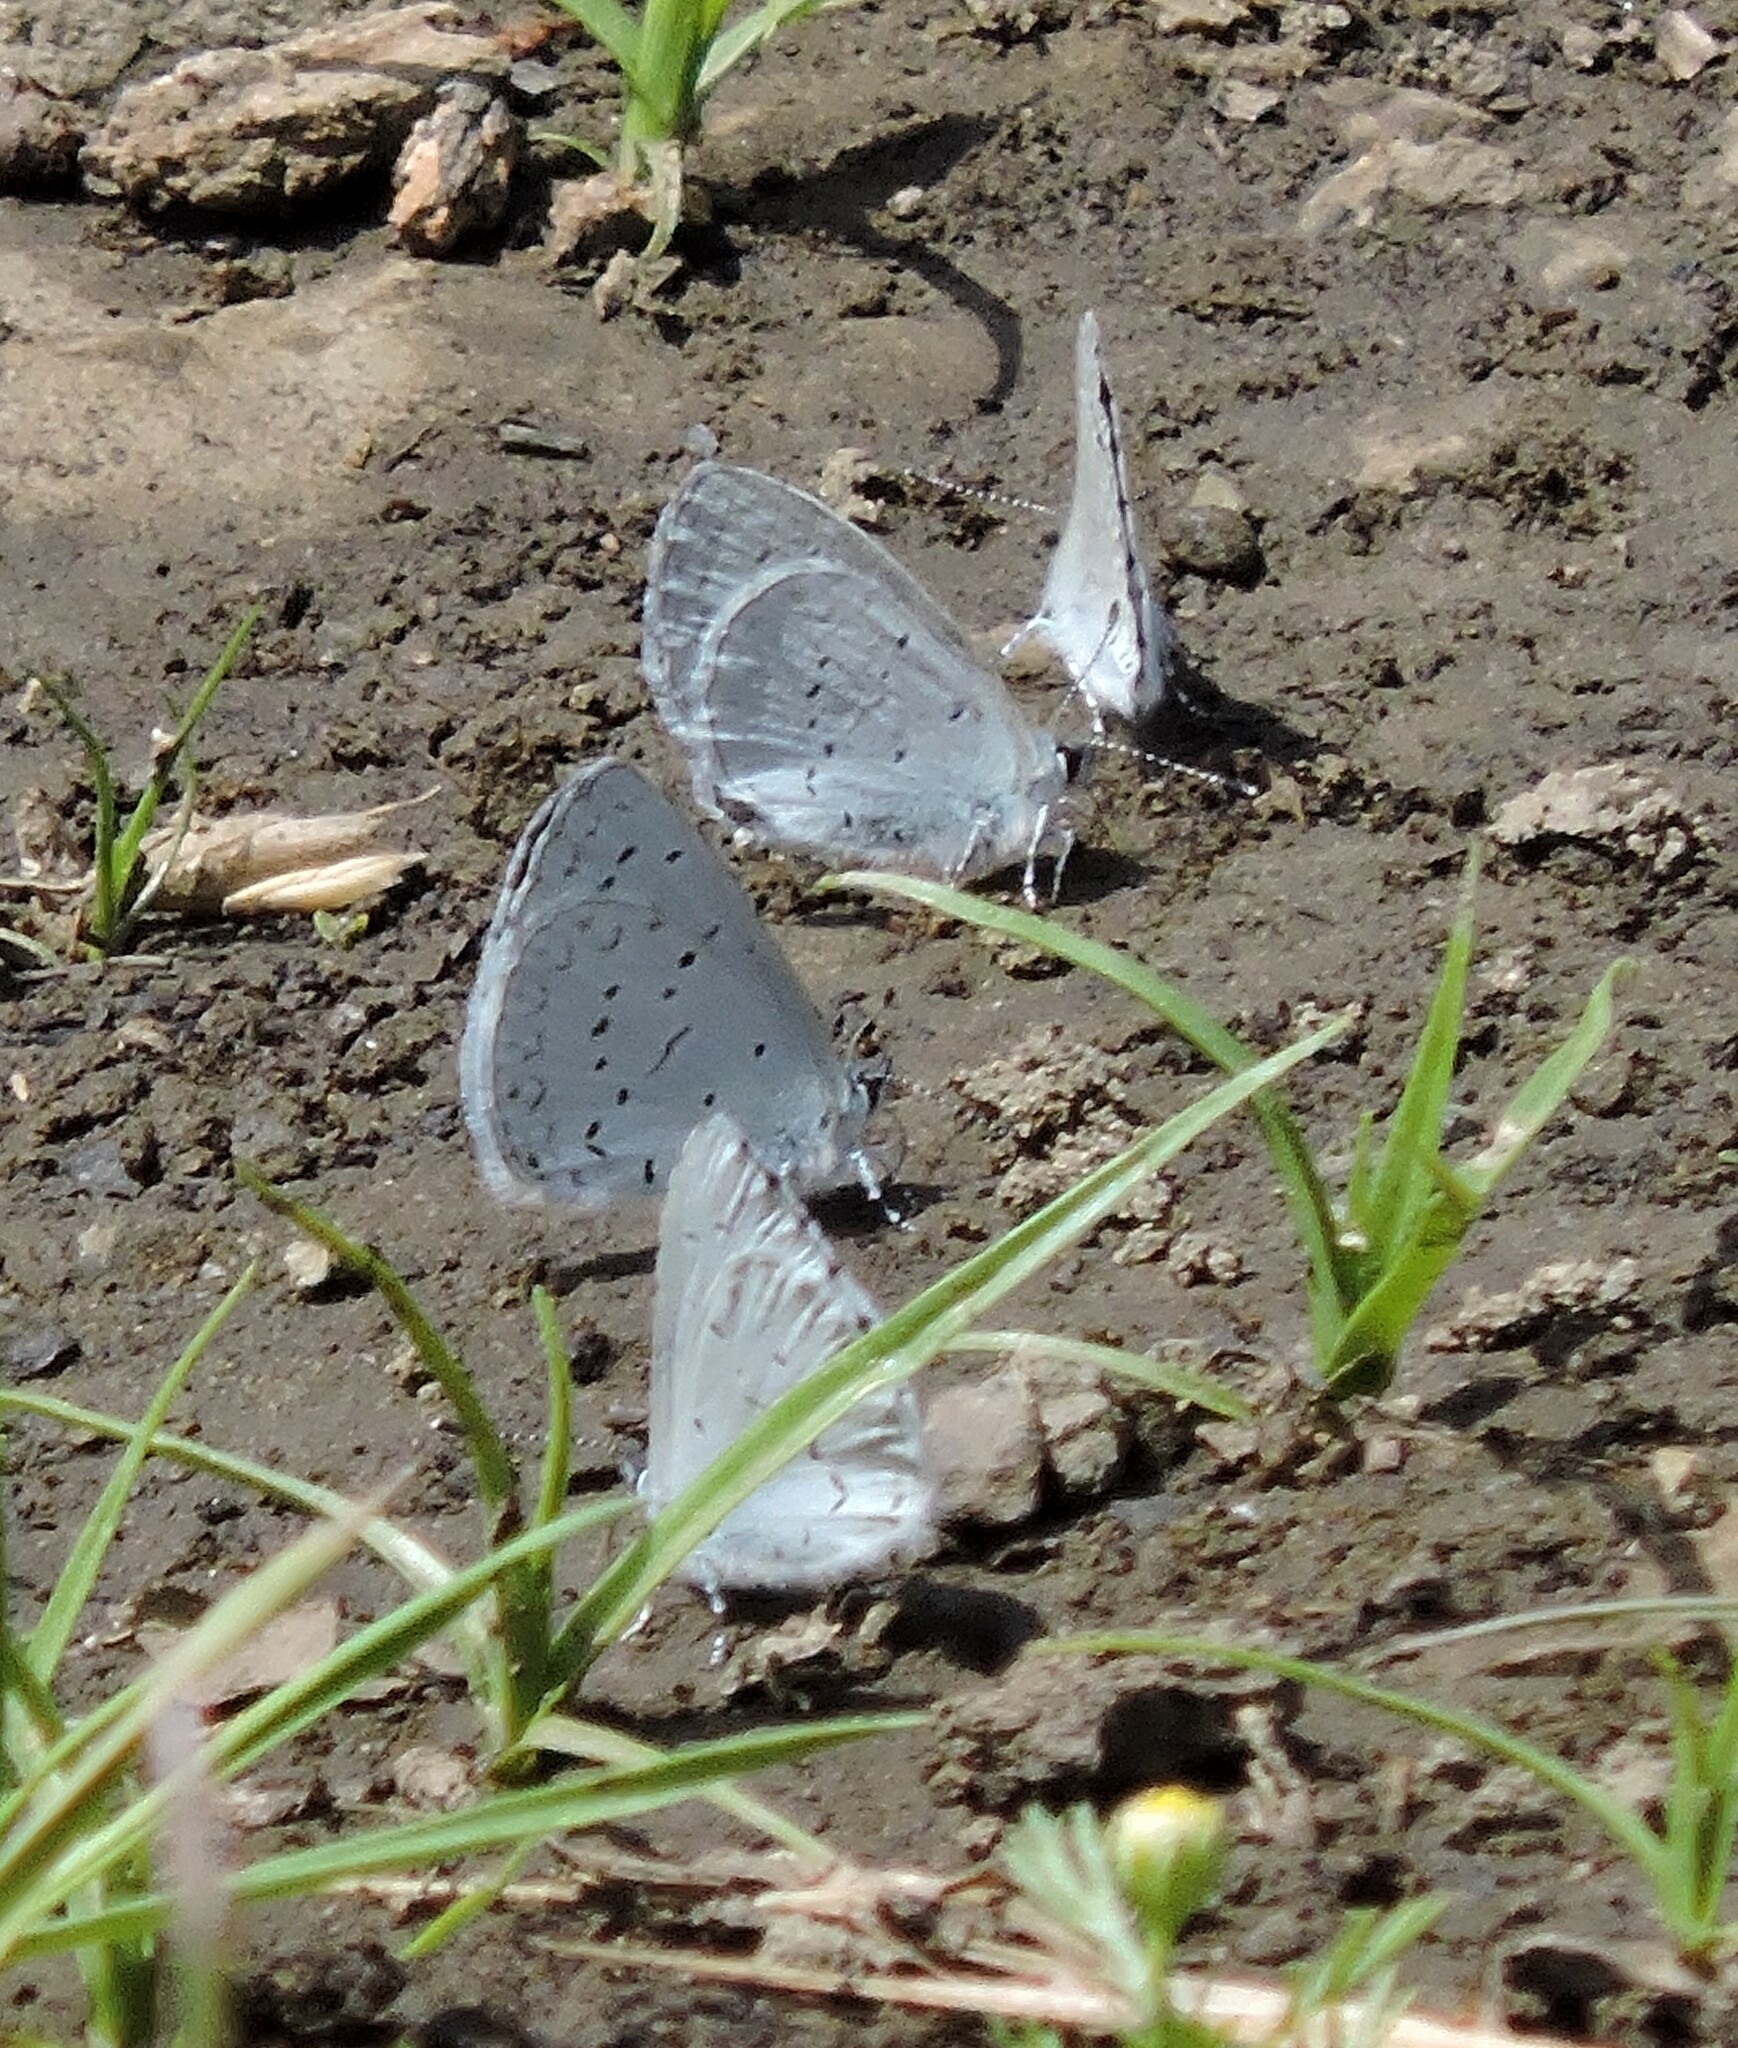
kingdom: Animalia
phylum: Arthropoda
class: Insecta
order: Lepidoptera
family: Lycaenidae
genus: Celastrina
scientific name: Celastrina ladon
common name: Spring azure
